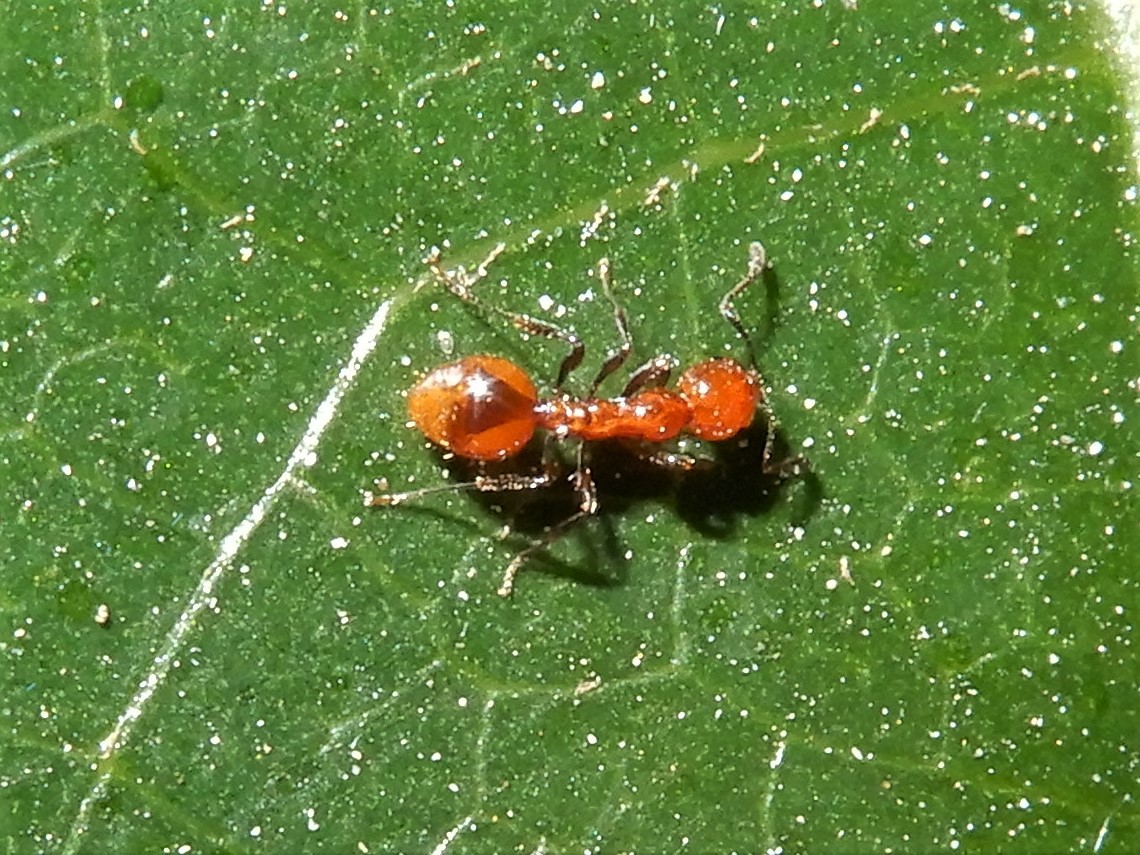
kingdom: Animalia
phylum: Arthropoda
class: Insecta
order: Hymenoptera
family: Formicidae
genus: Huberia
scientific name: Huberia striata
